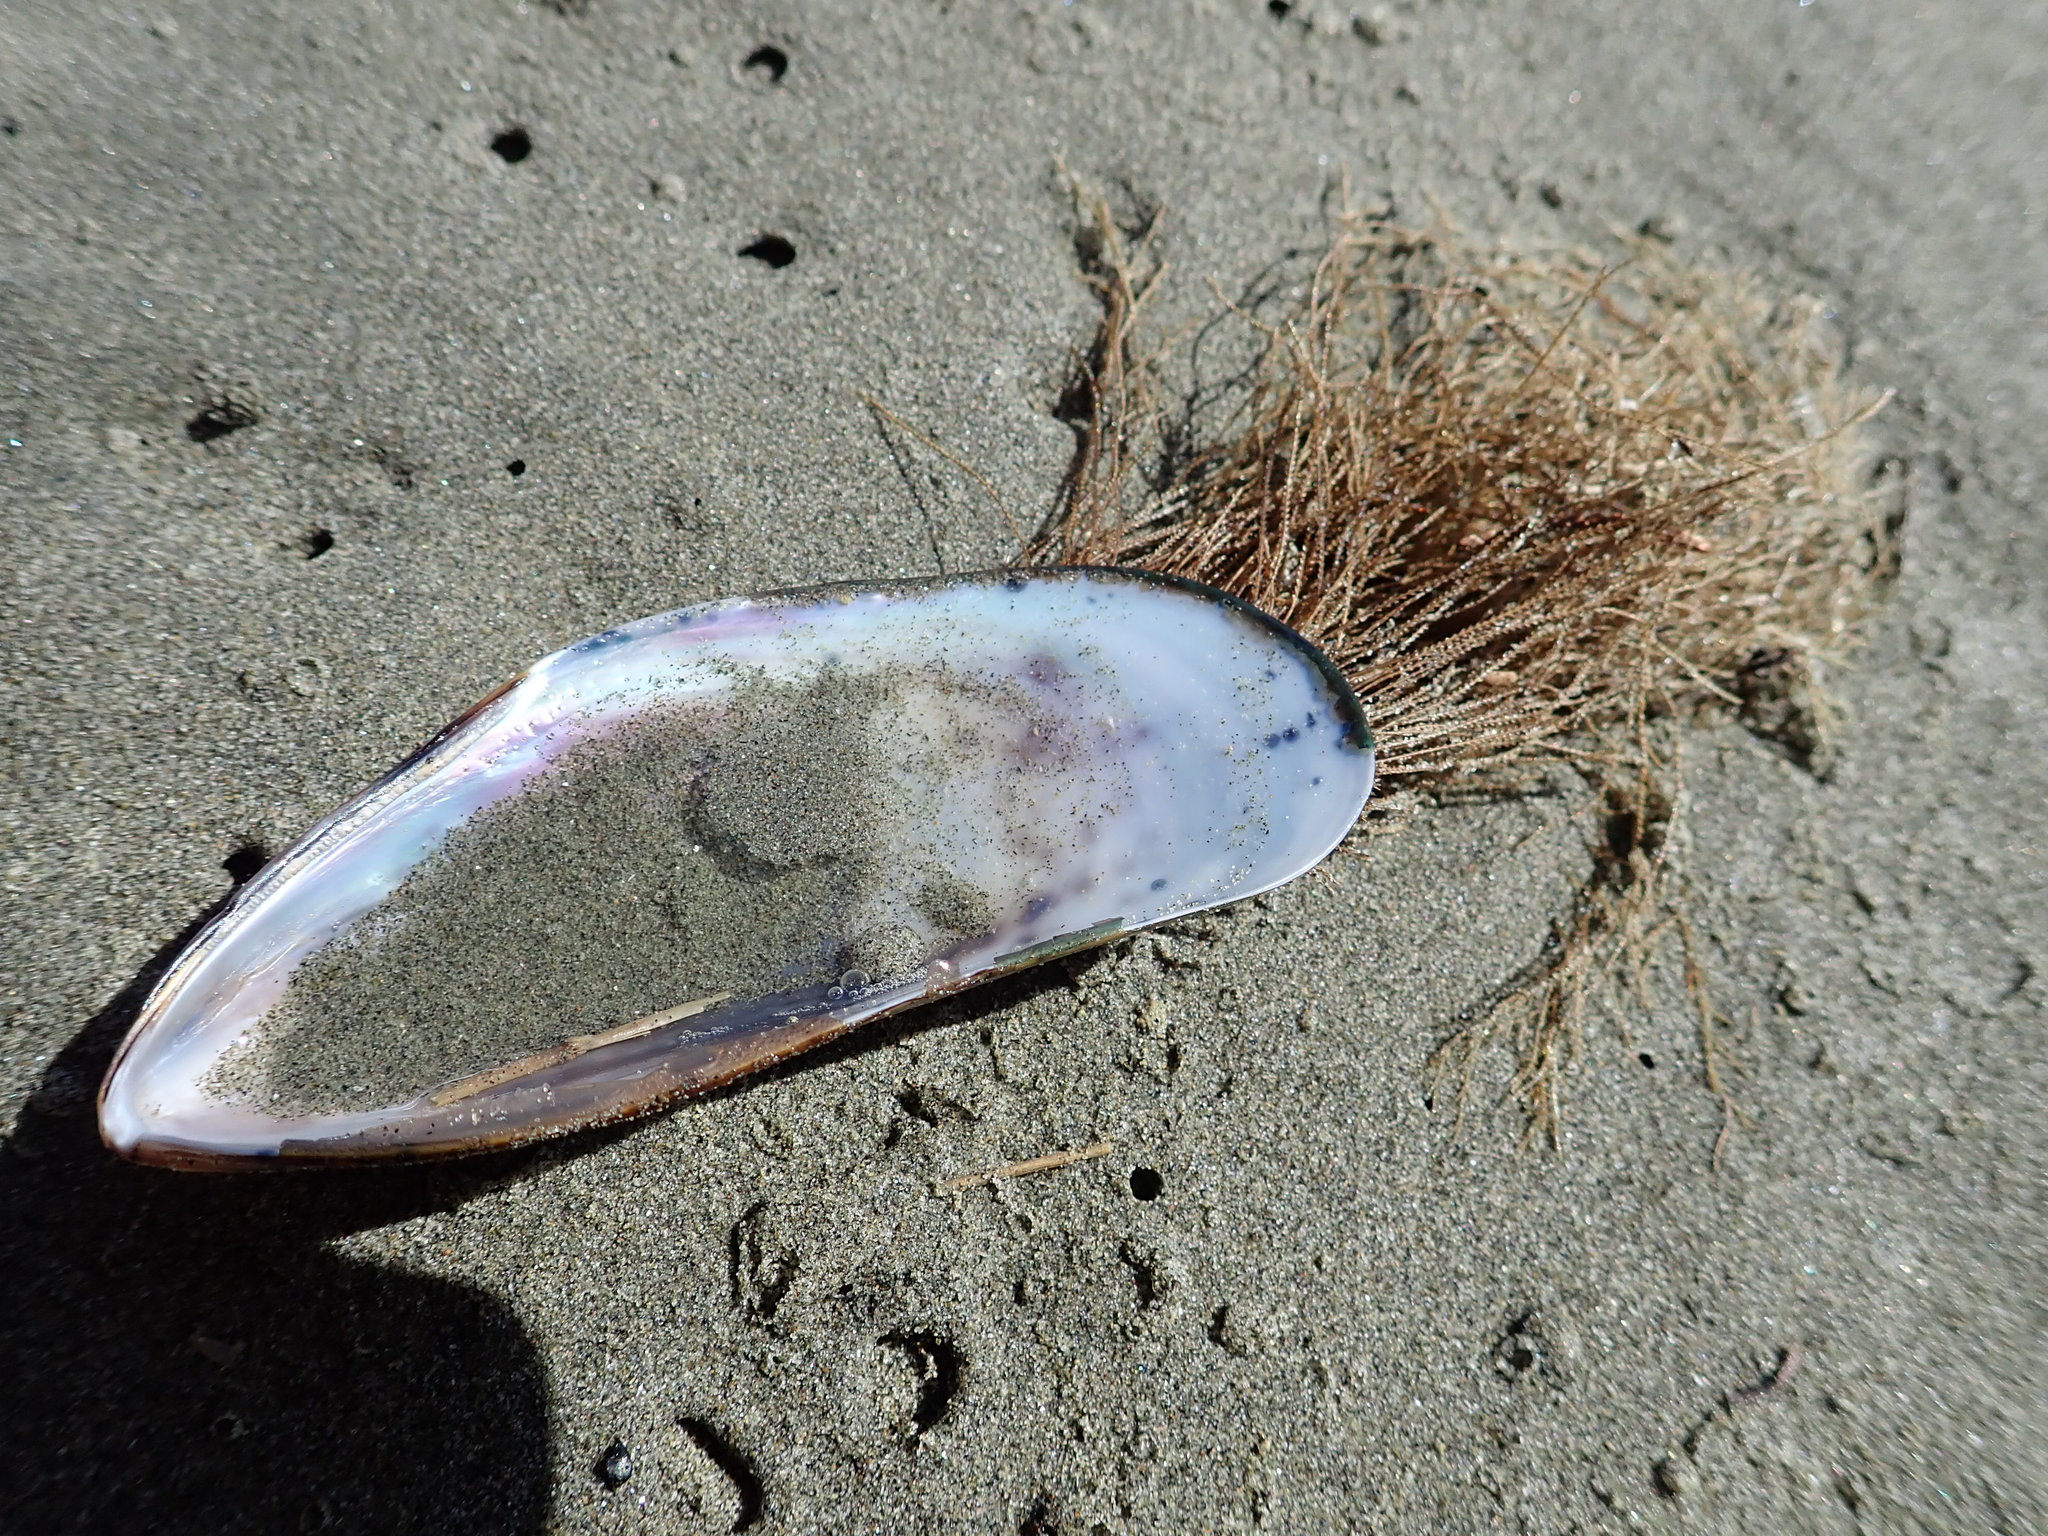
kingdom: Animalia
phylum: Cnidaria
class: Hydrozoa
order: Leptothecata
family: Sertulariidae
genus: Amphisbetia
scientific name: Amphisbetia bispinosa
